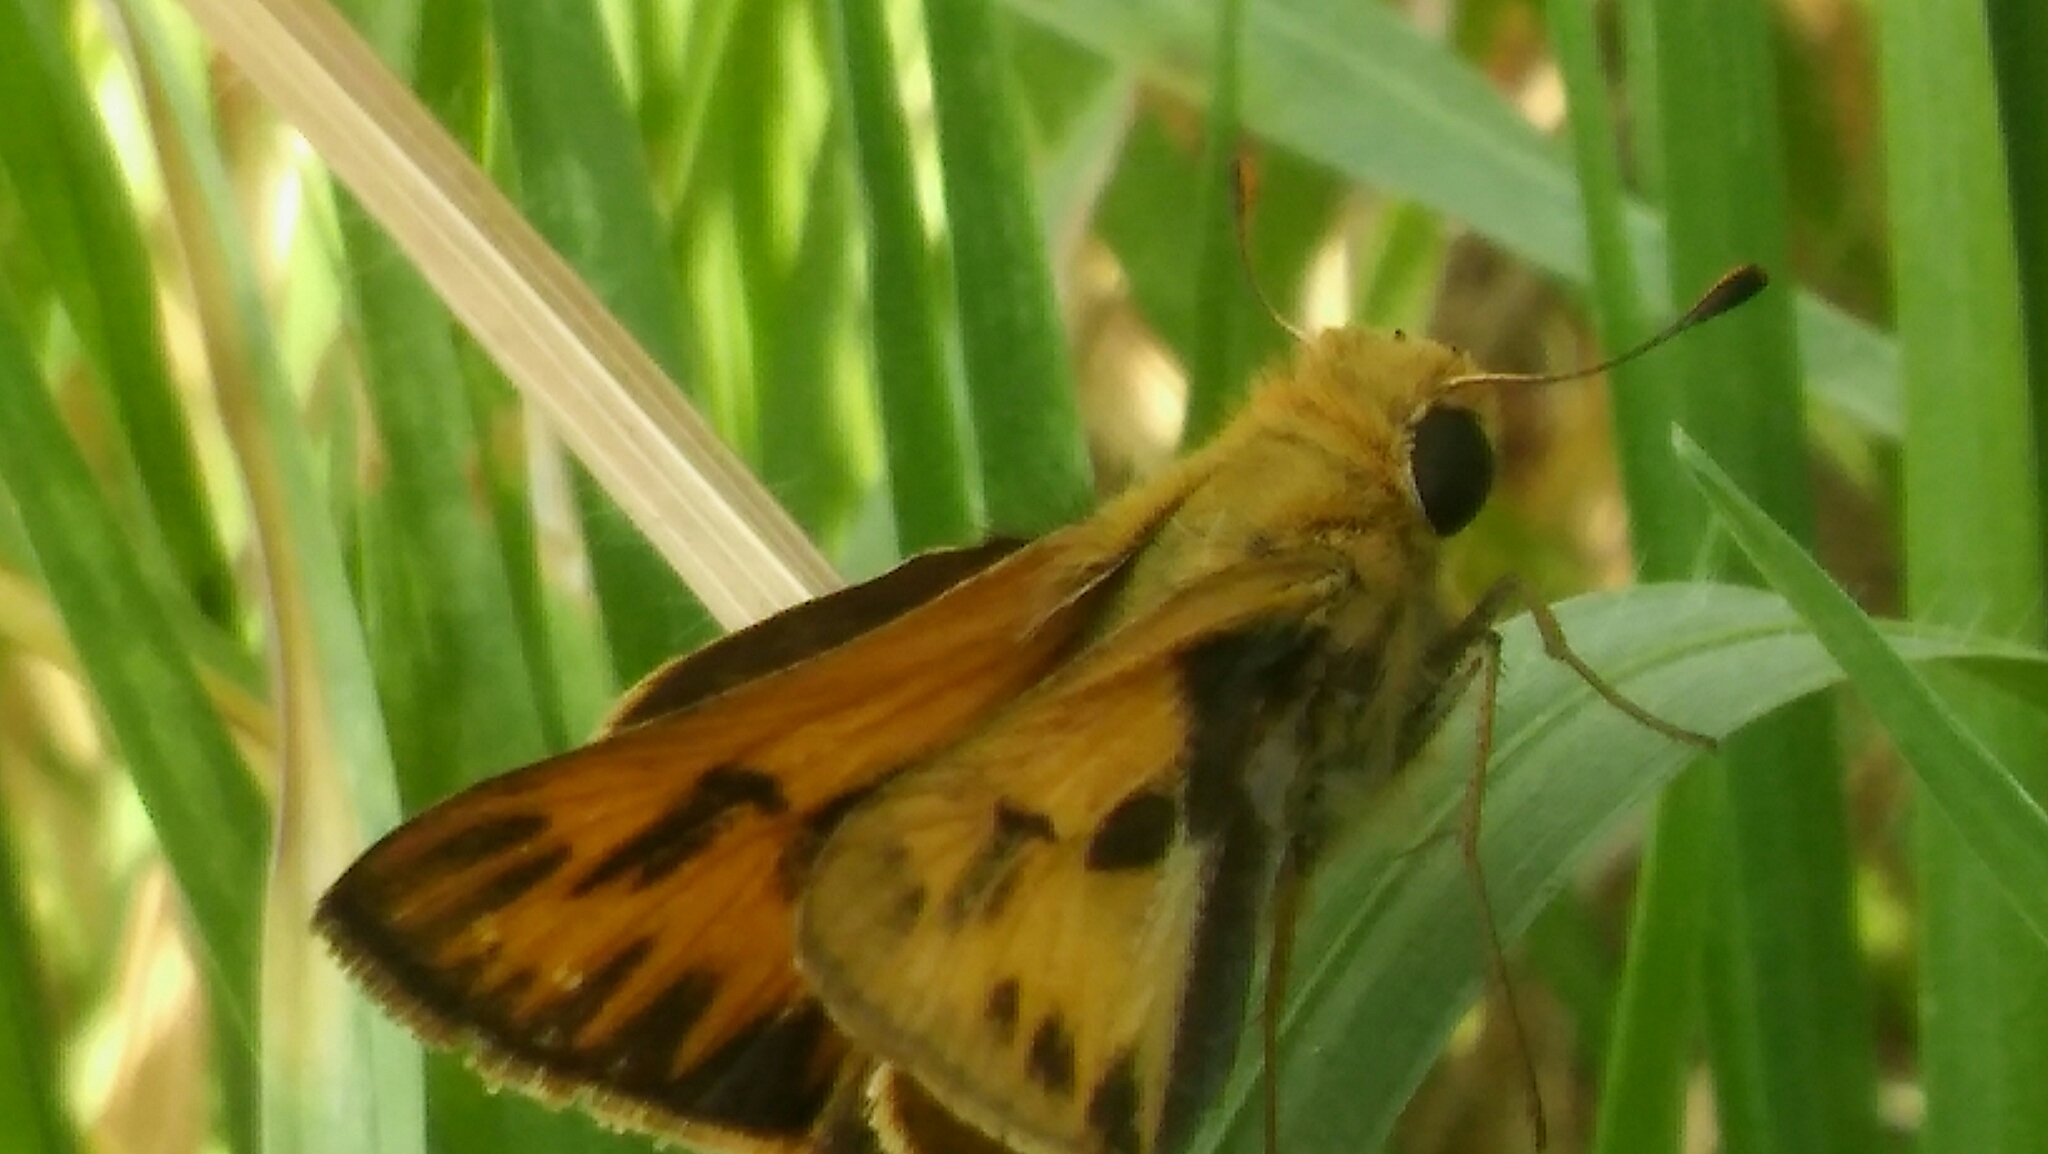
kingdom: Animalia
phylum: Arthropoda
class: Insecta
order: Lepidoptera
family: Hesperiidae
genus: Hylephila
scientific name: Hylephila phyleus
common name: Fiery skipper
